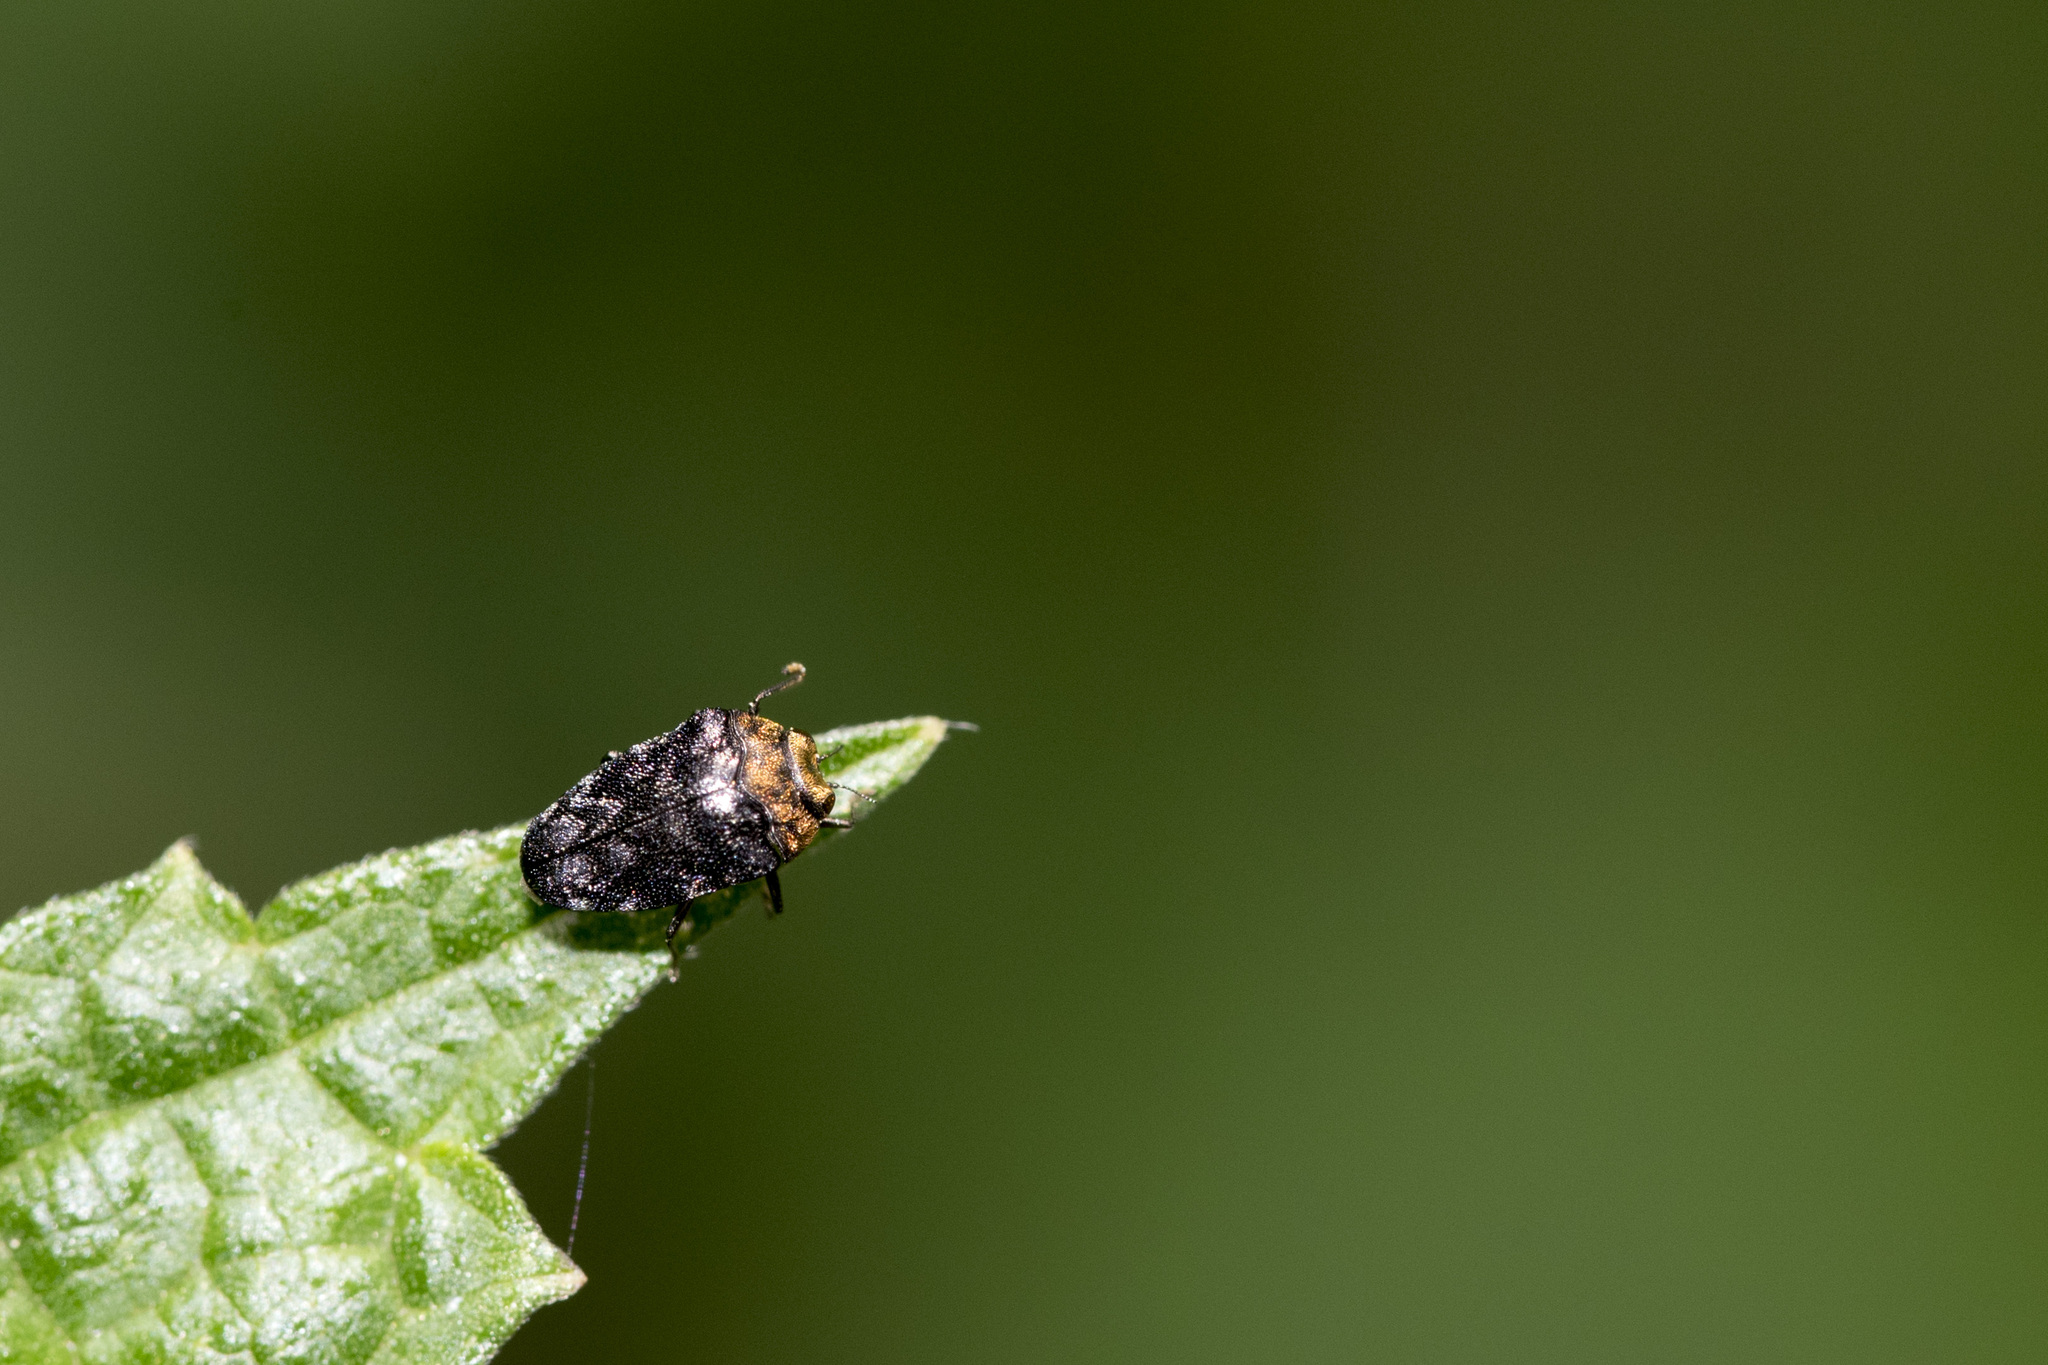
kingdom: Animalia
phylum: Arthropoda
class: Insecta
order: Coleoptera
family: Buprestidae
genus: Trachys
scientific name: Trachys auricollis
